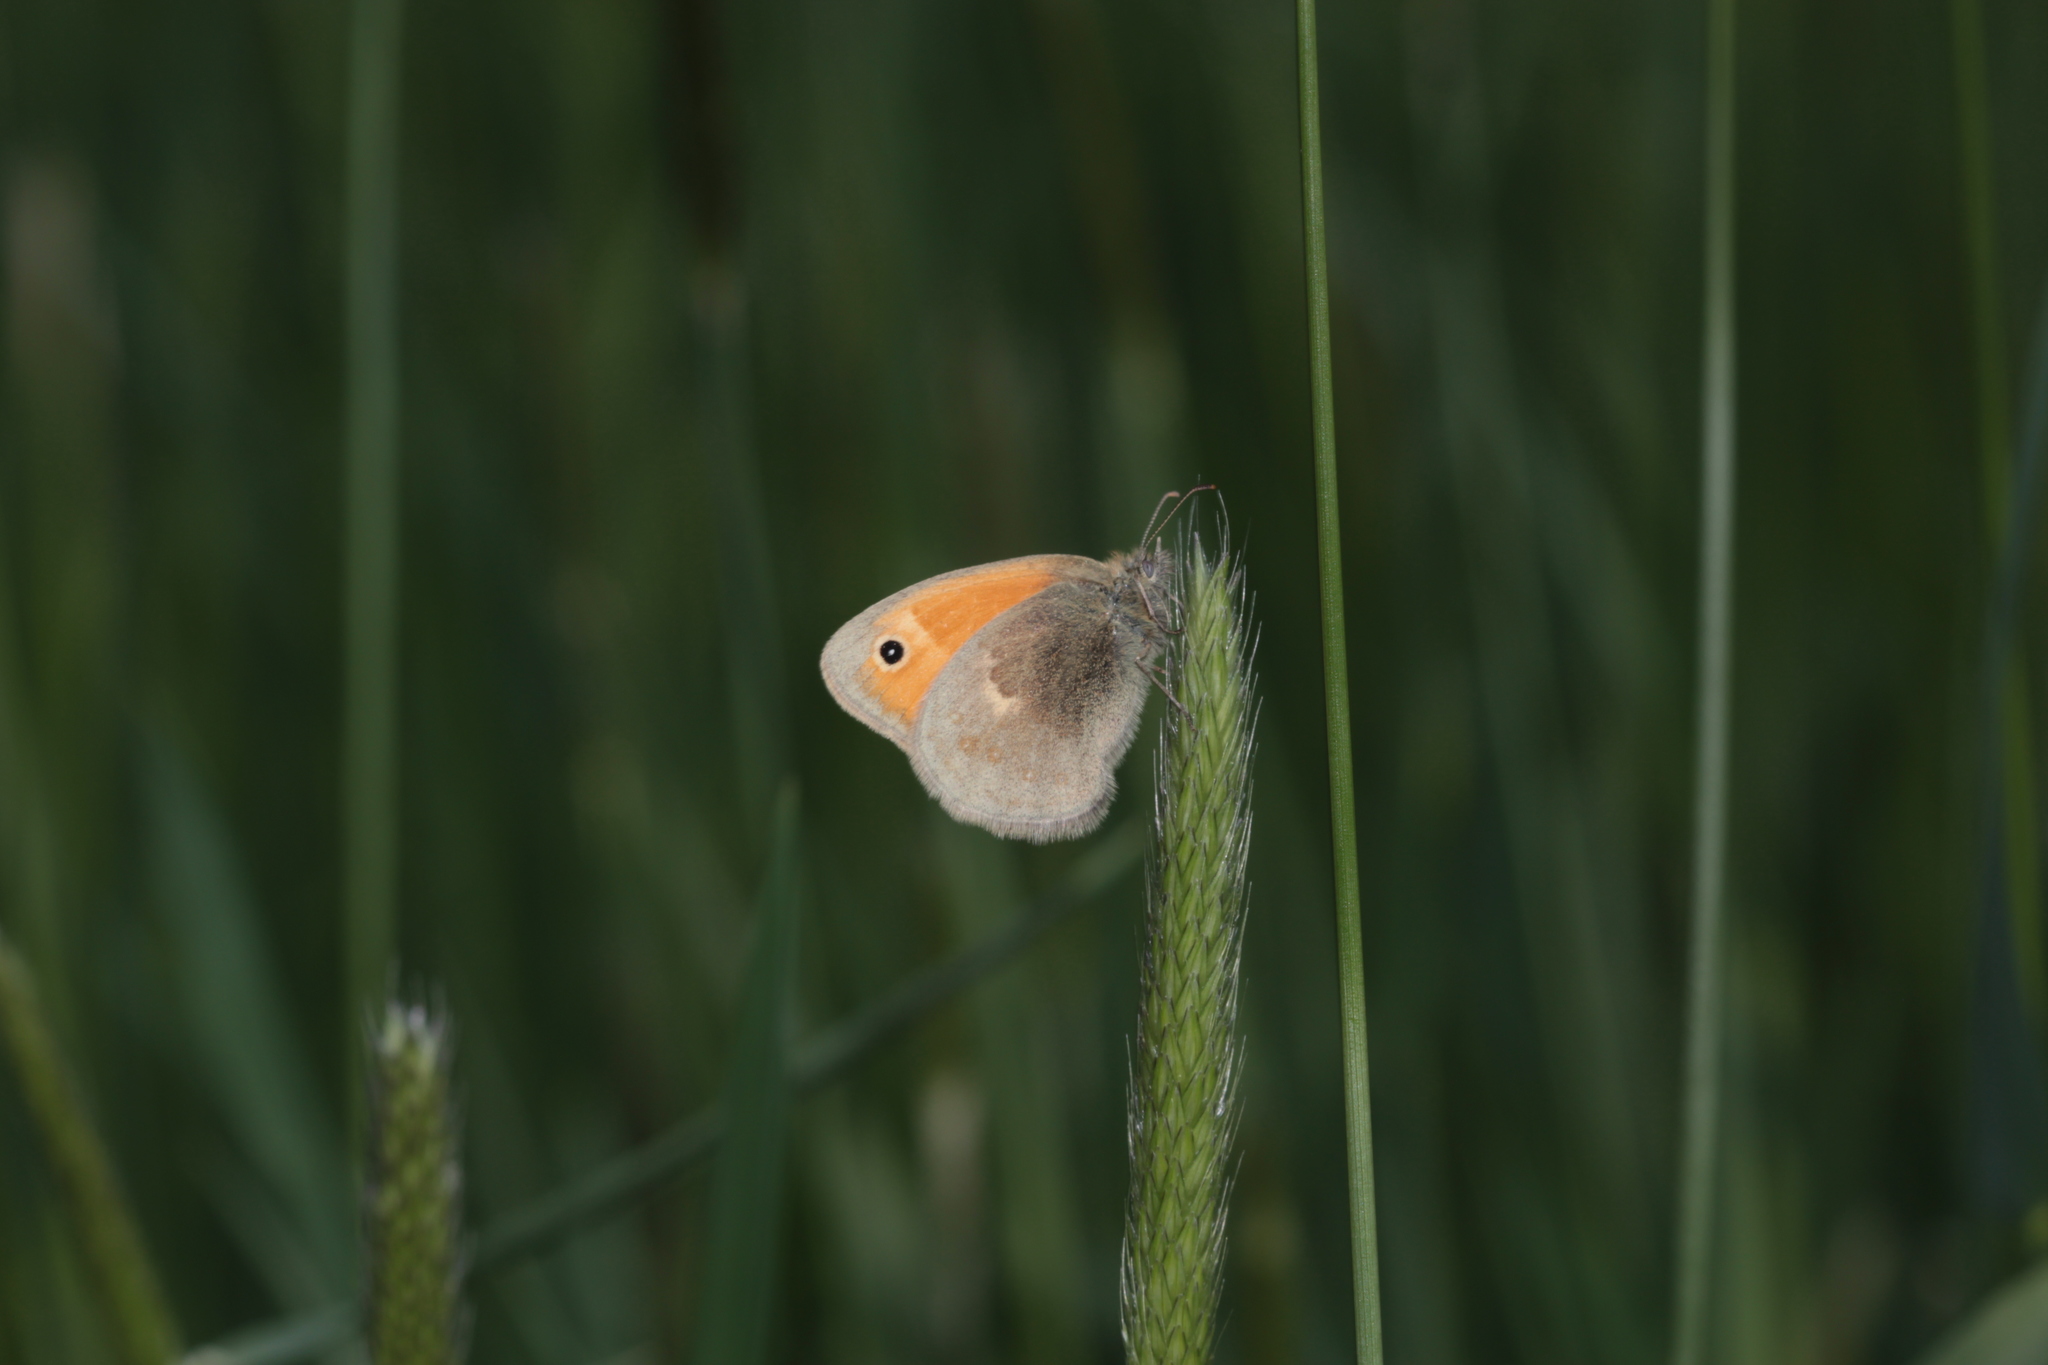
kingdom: Animalia
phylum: Arthropoda
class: Insecta
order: Lepidoptera
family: Nymphalidae
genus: Coenonympha
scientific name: Coenonympha pamphilus
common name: Small heath
